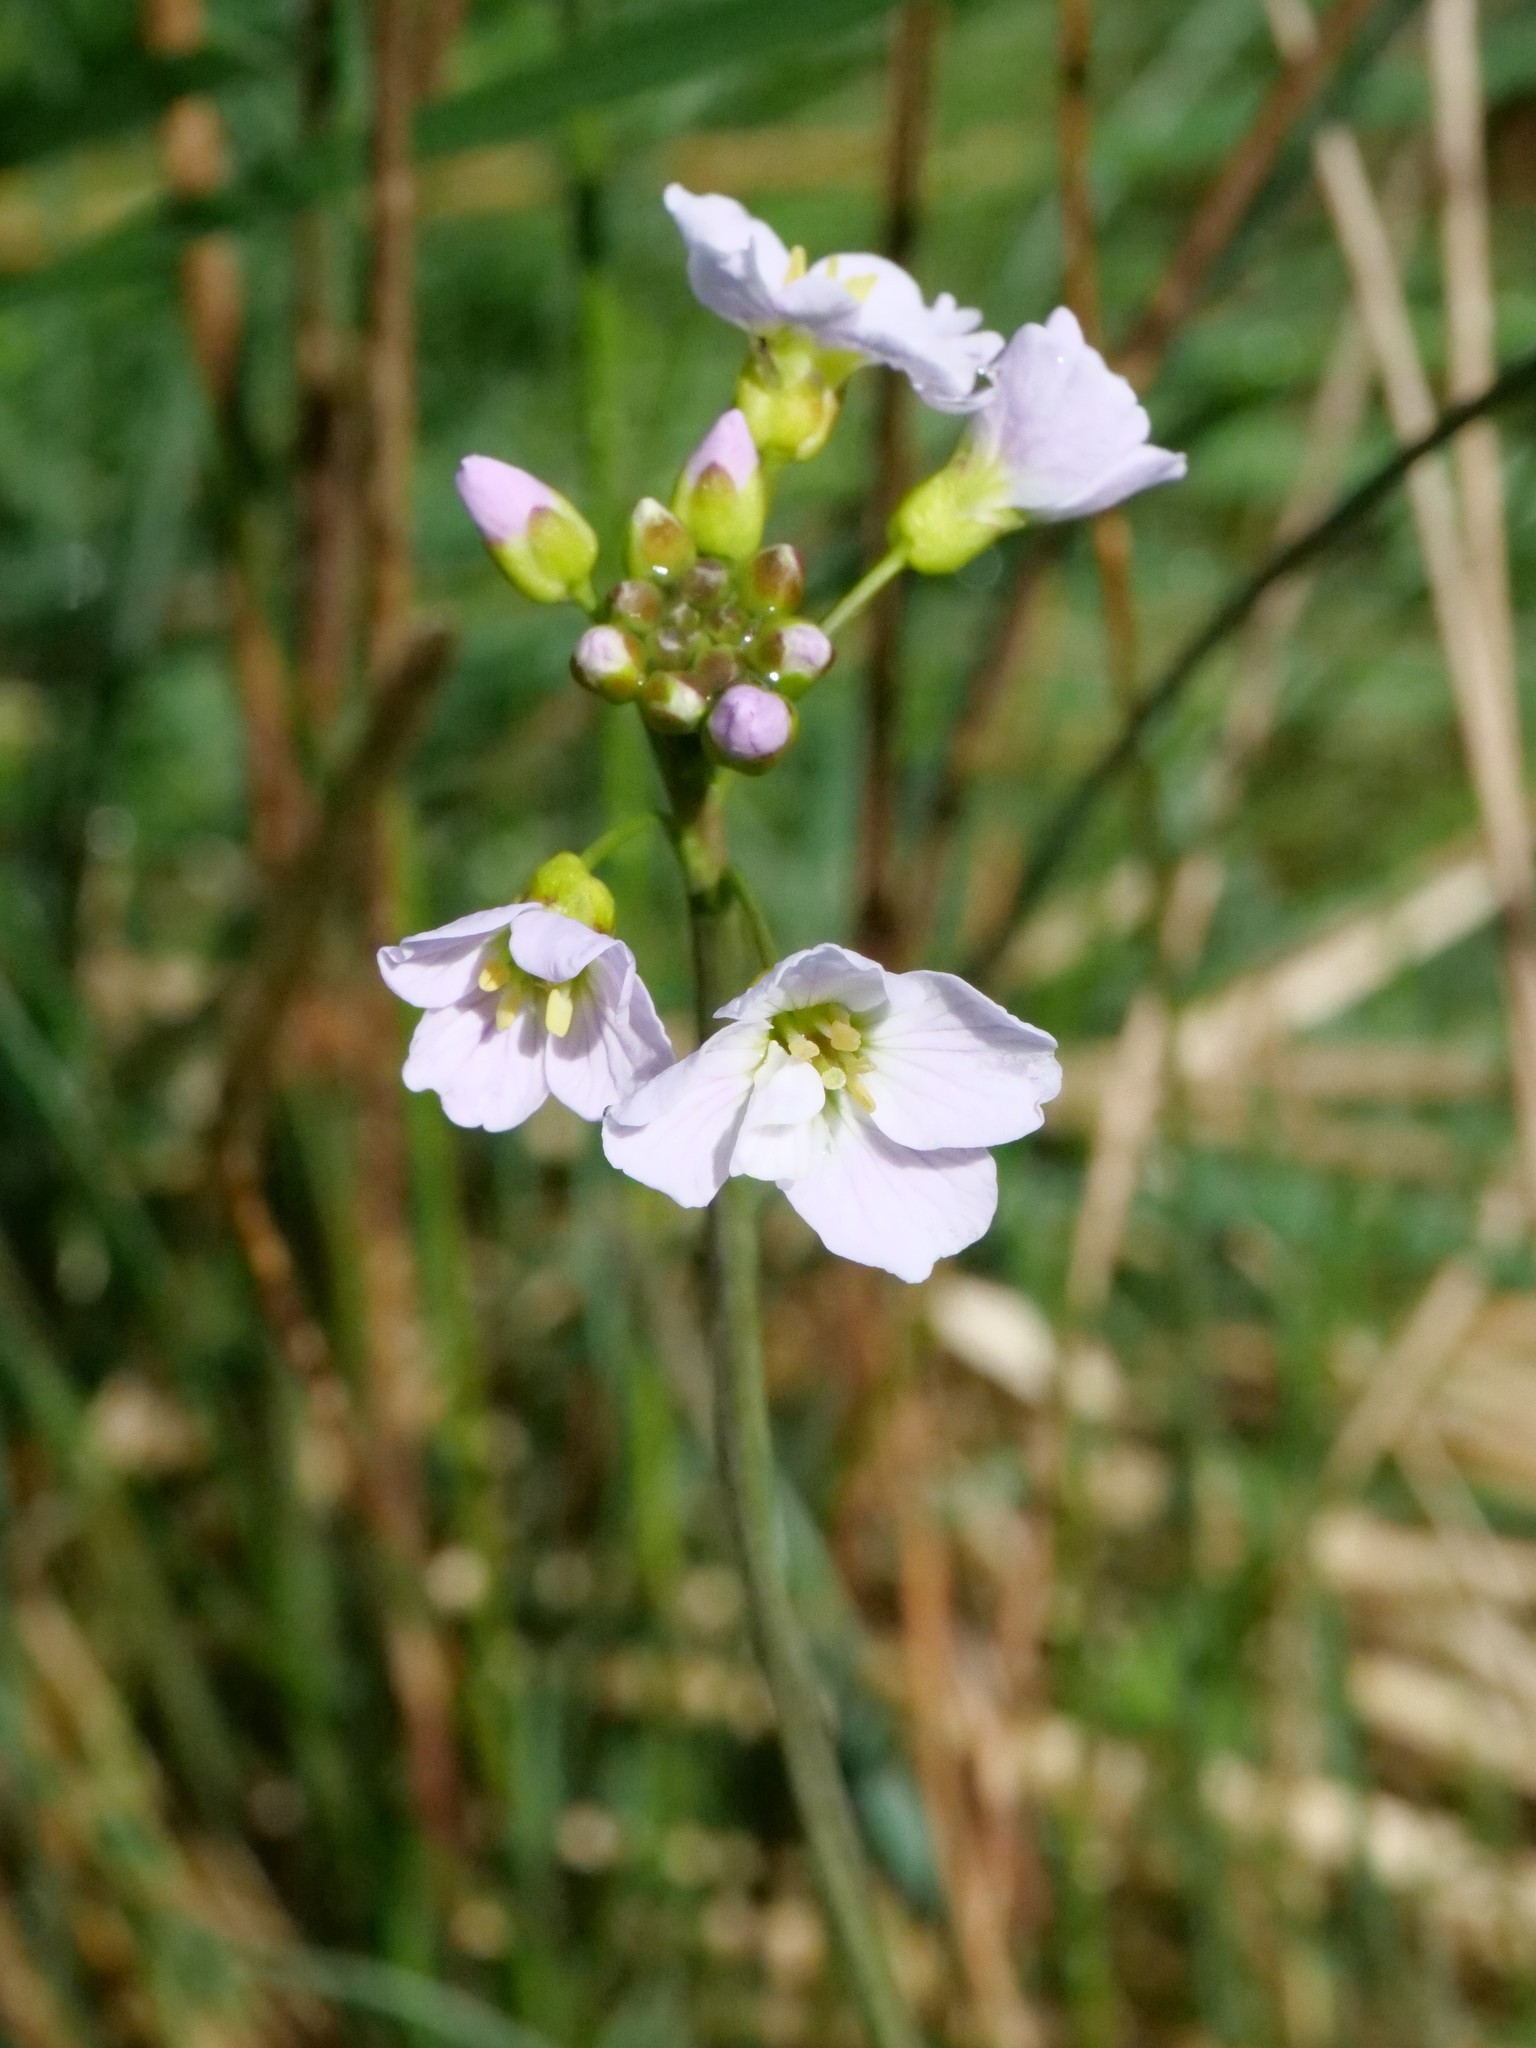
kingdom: Plantae
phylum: Tracheophyta
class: Magnoliopsida
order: Brassicales
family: Brassicaceae
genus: Cardamine
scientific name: Cardamine pratensis
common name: Cuckoo flower
